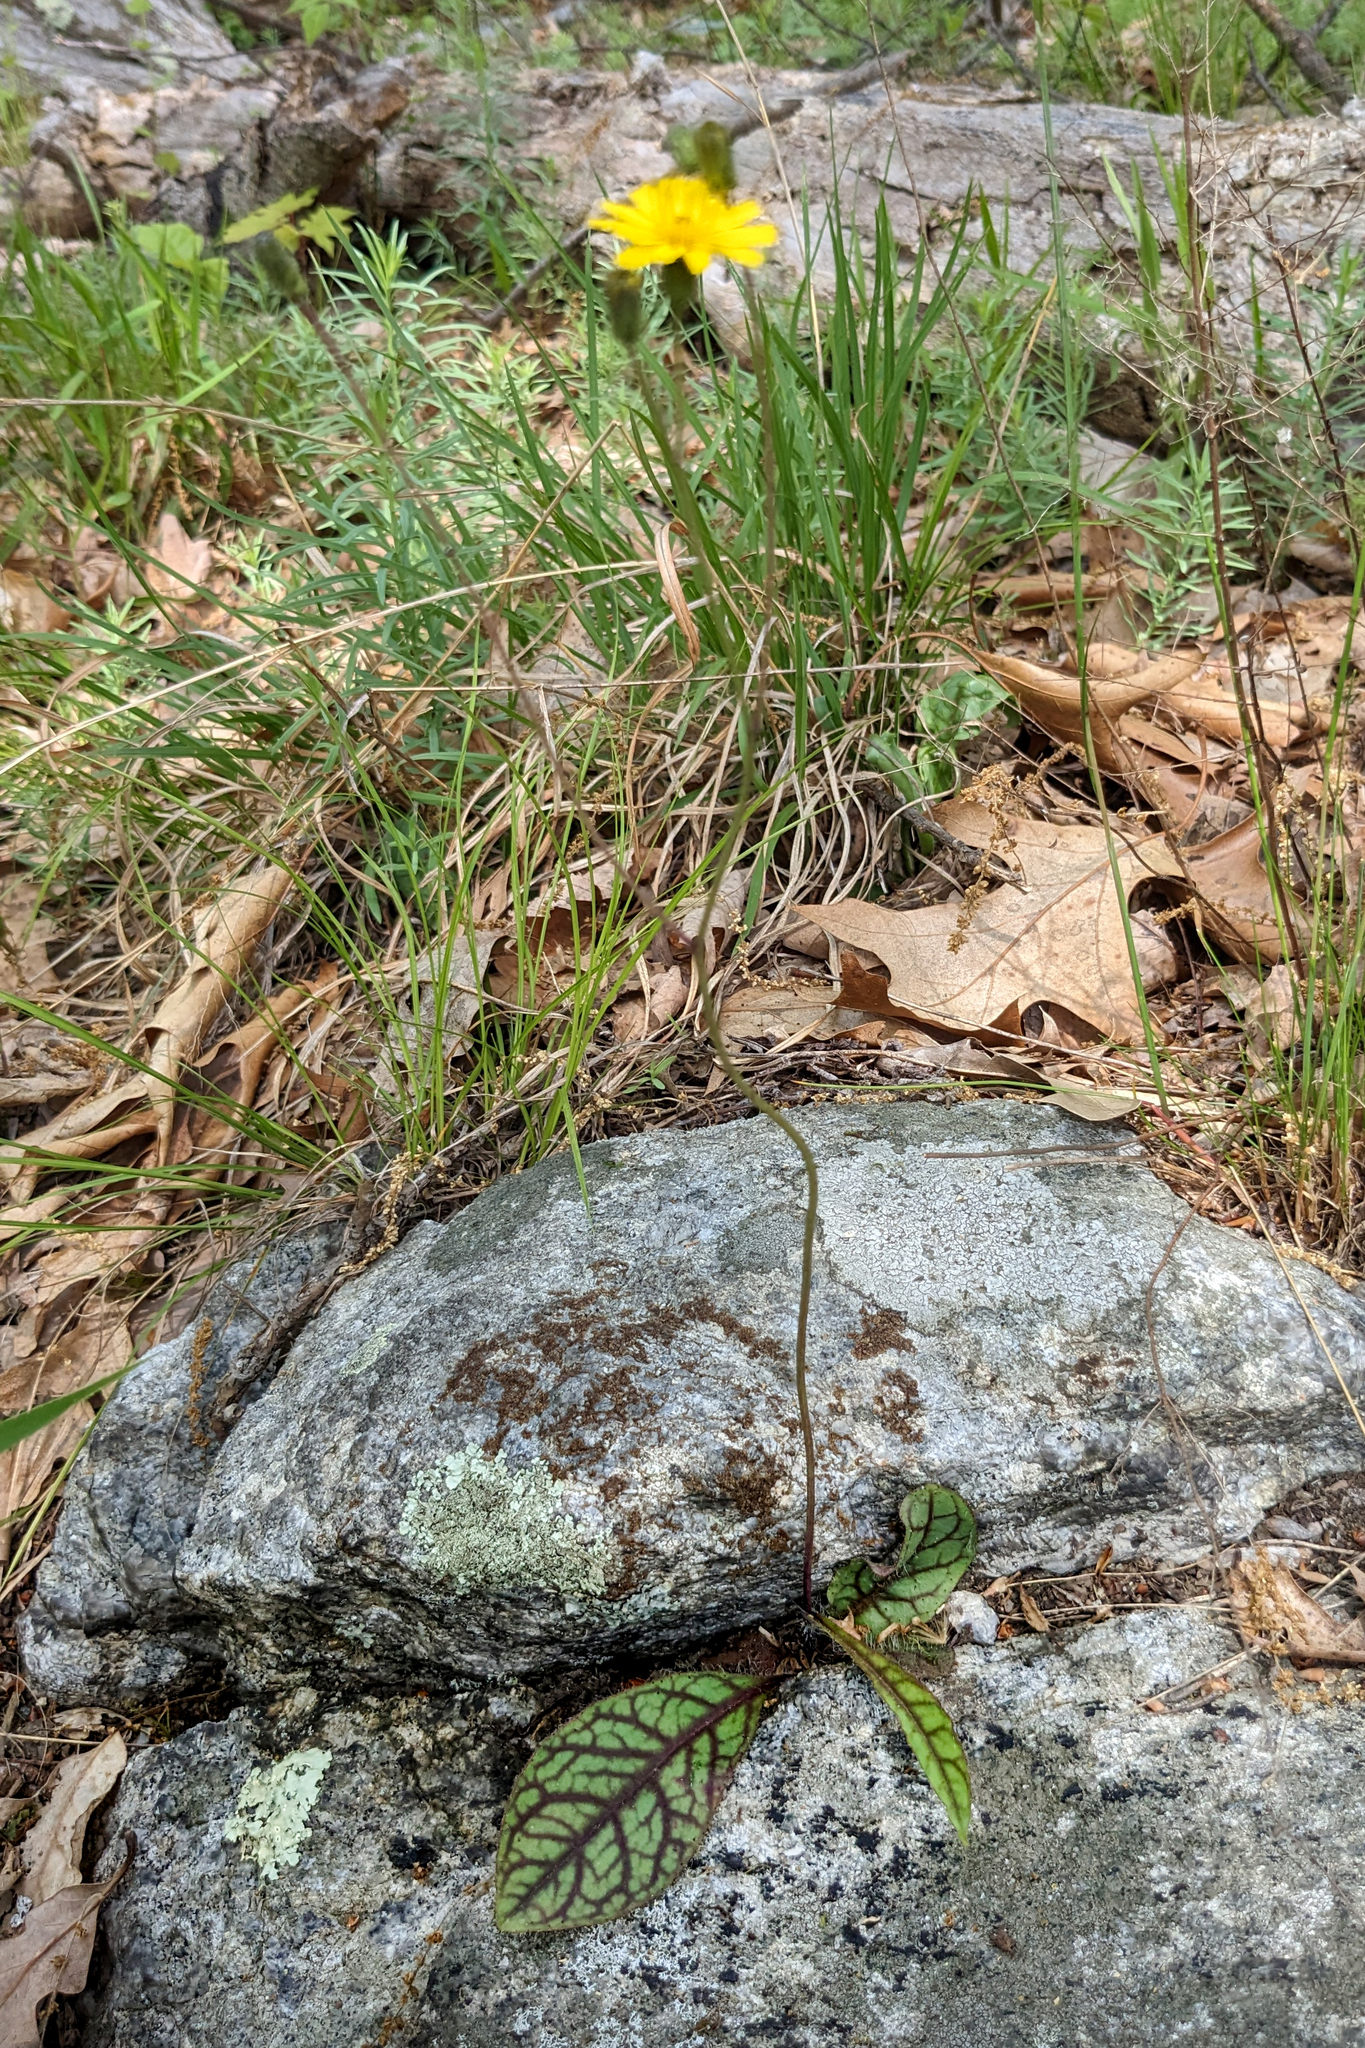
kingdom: Plantae
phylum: Tracheophyta
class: Magnoliopsida
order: Asterales
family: Asteraceae
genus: Hieracium
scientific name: Hieracium venosum
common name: Rattlesnake hawkweed
